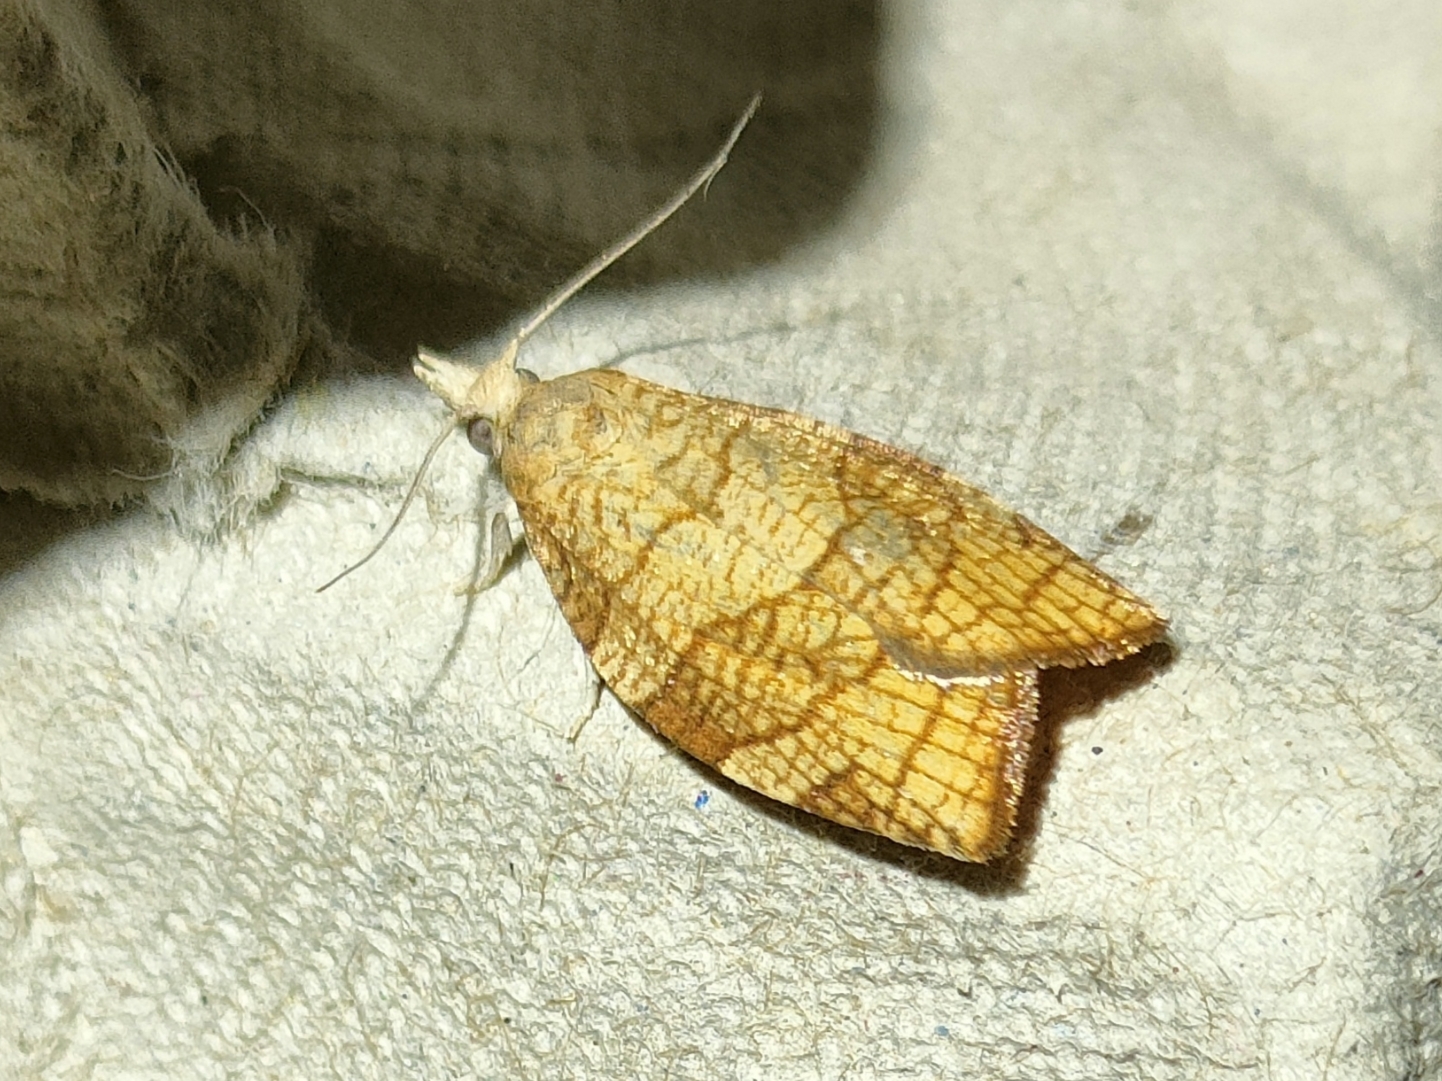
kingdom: Animalia
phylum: Arthropoda
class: Insecta
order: Lepidoptera
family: Tortricidae
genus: Pandemis
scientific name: Pandemis corylana
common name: Chequered fruit-tree tortrix
